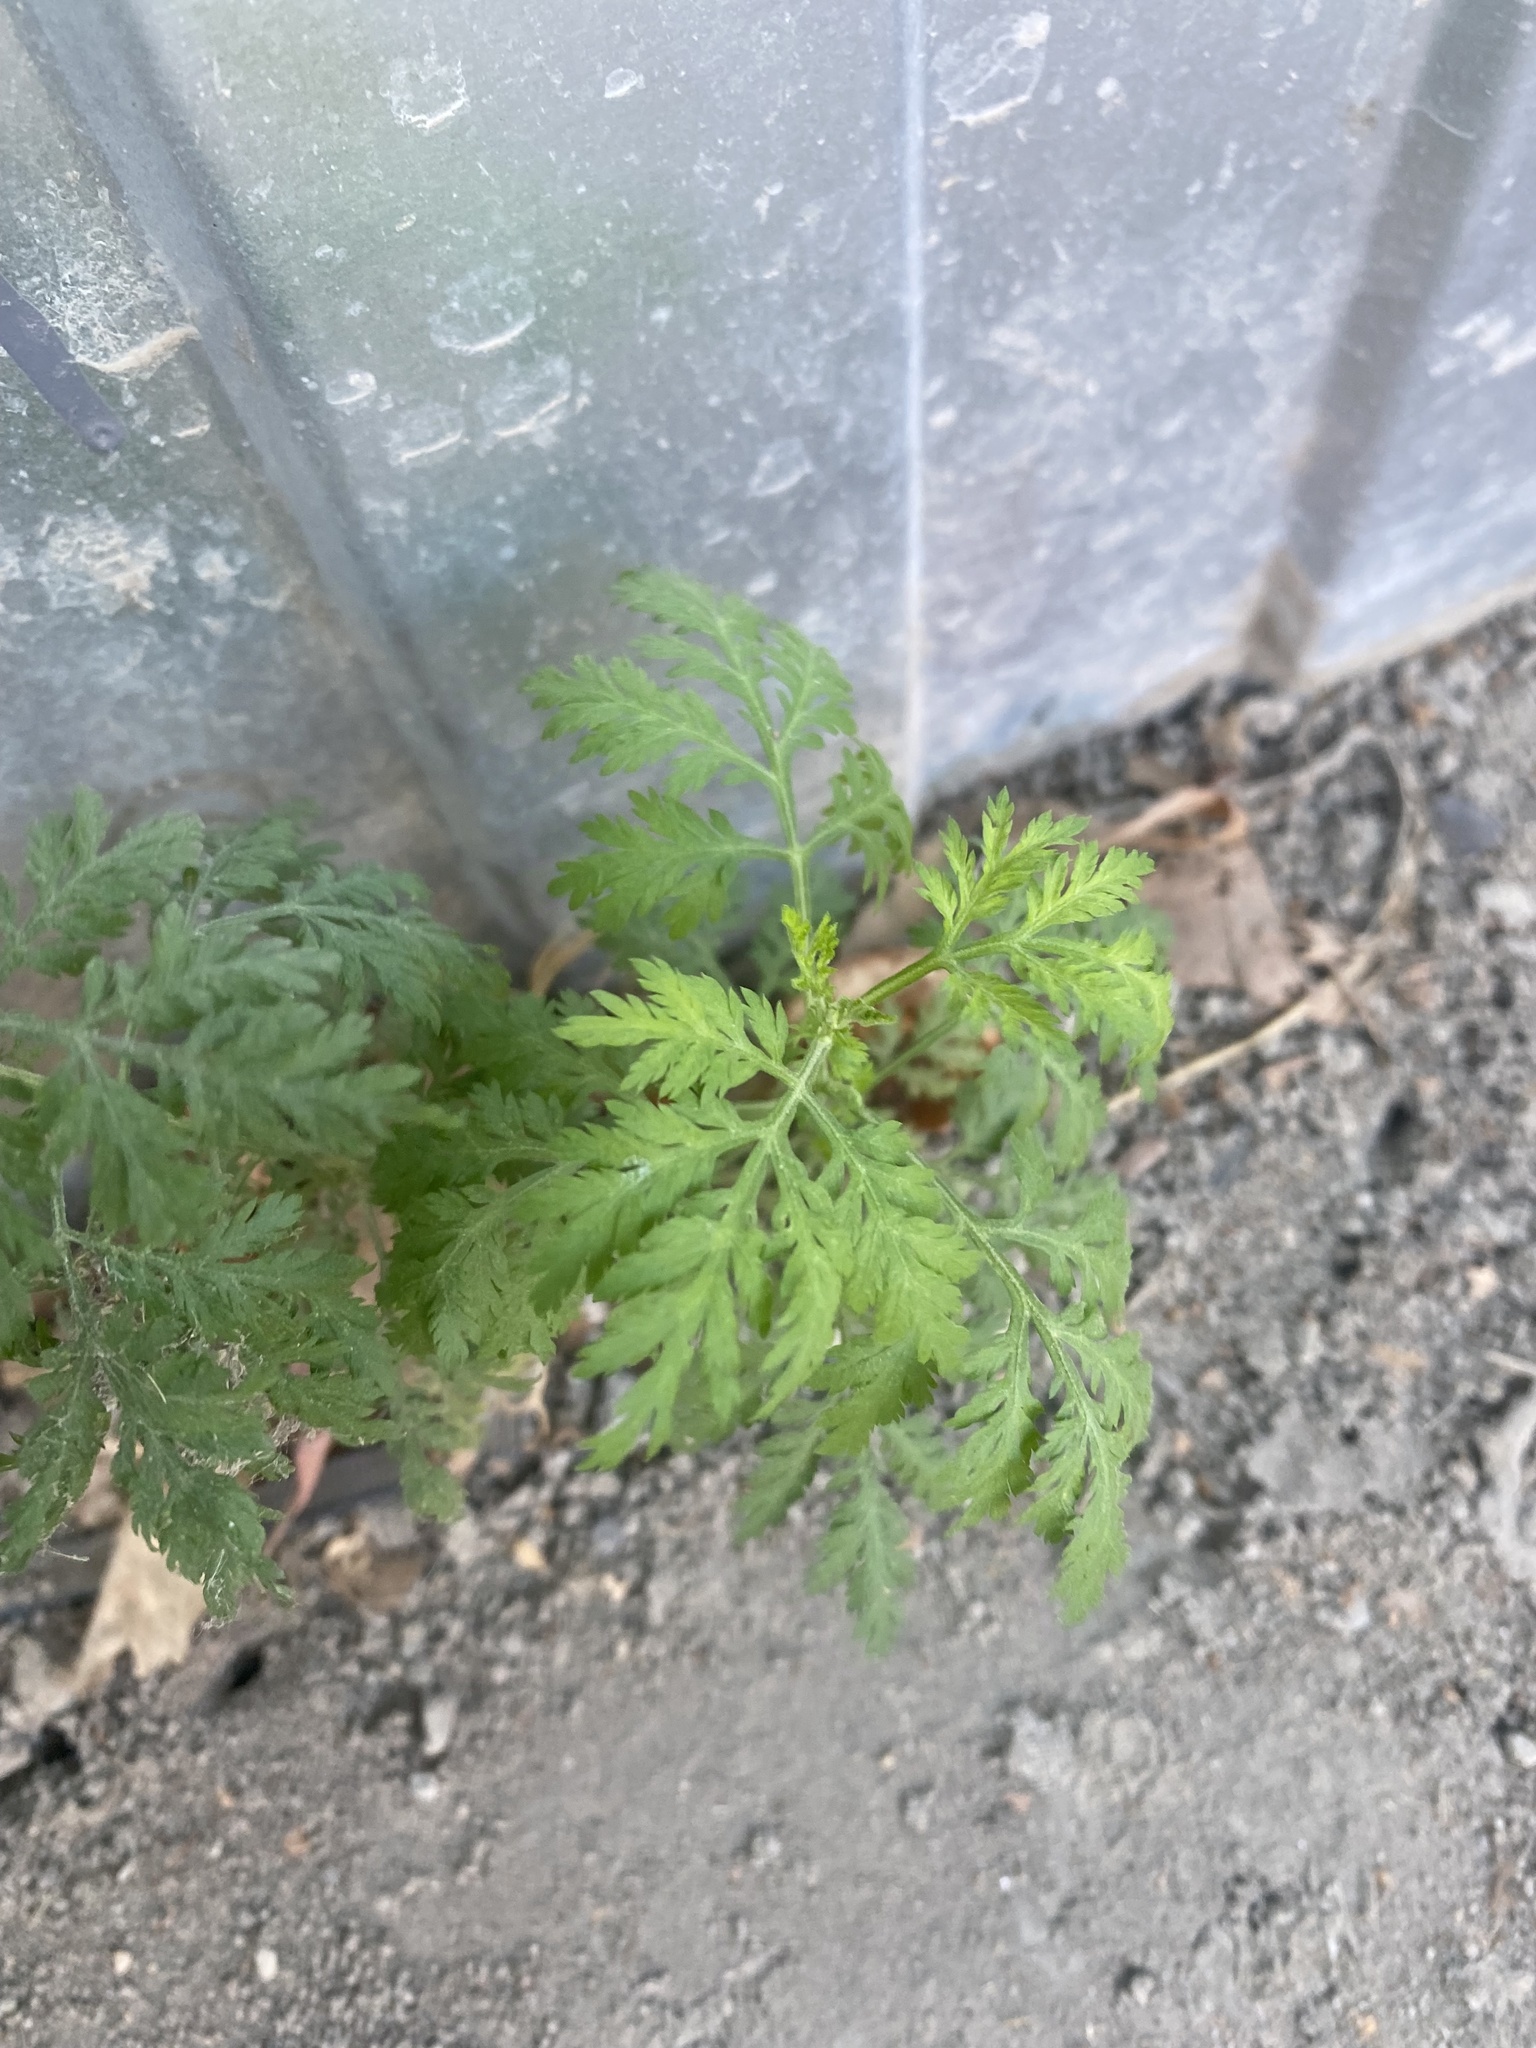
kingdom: Plantae
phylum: Tracheophyta
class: Magnoliopsida
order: Asterales
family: Asteraceae
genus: Artemisia
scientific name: Artemisia annua
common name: Sweet sagewort
